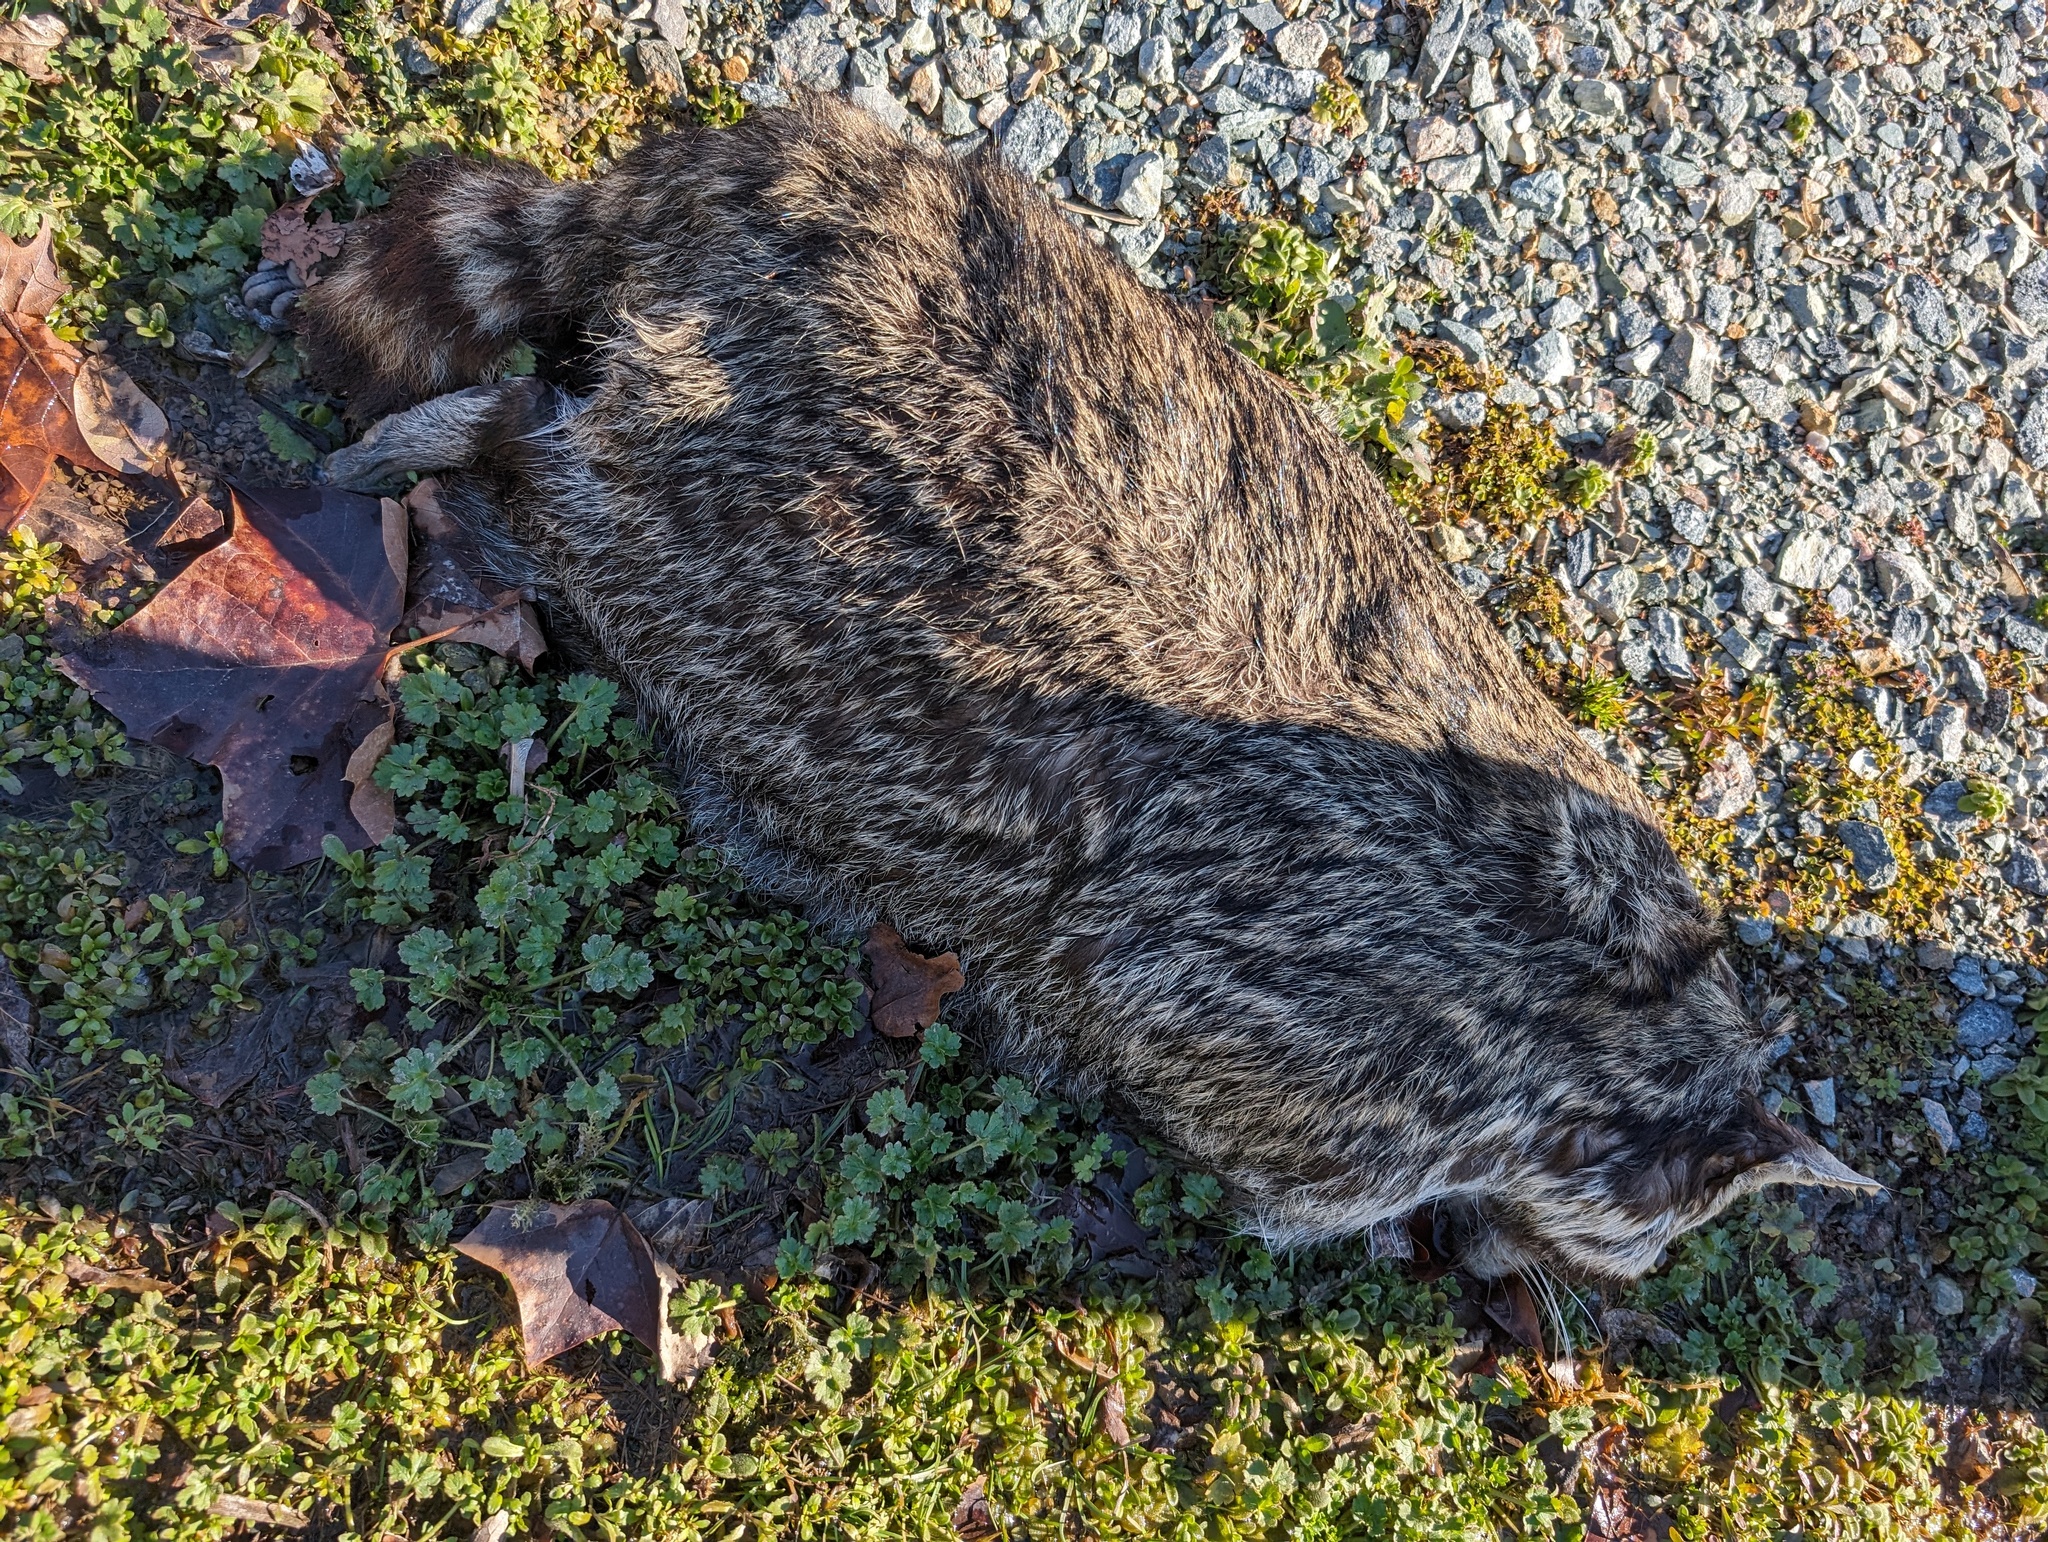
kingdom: Animalia
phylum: Chordata
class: Mammalia
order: Carnivora
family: Procyonidae
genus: Procyon
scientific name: Procyon lotor
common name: Raccoon
